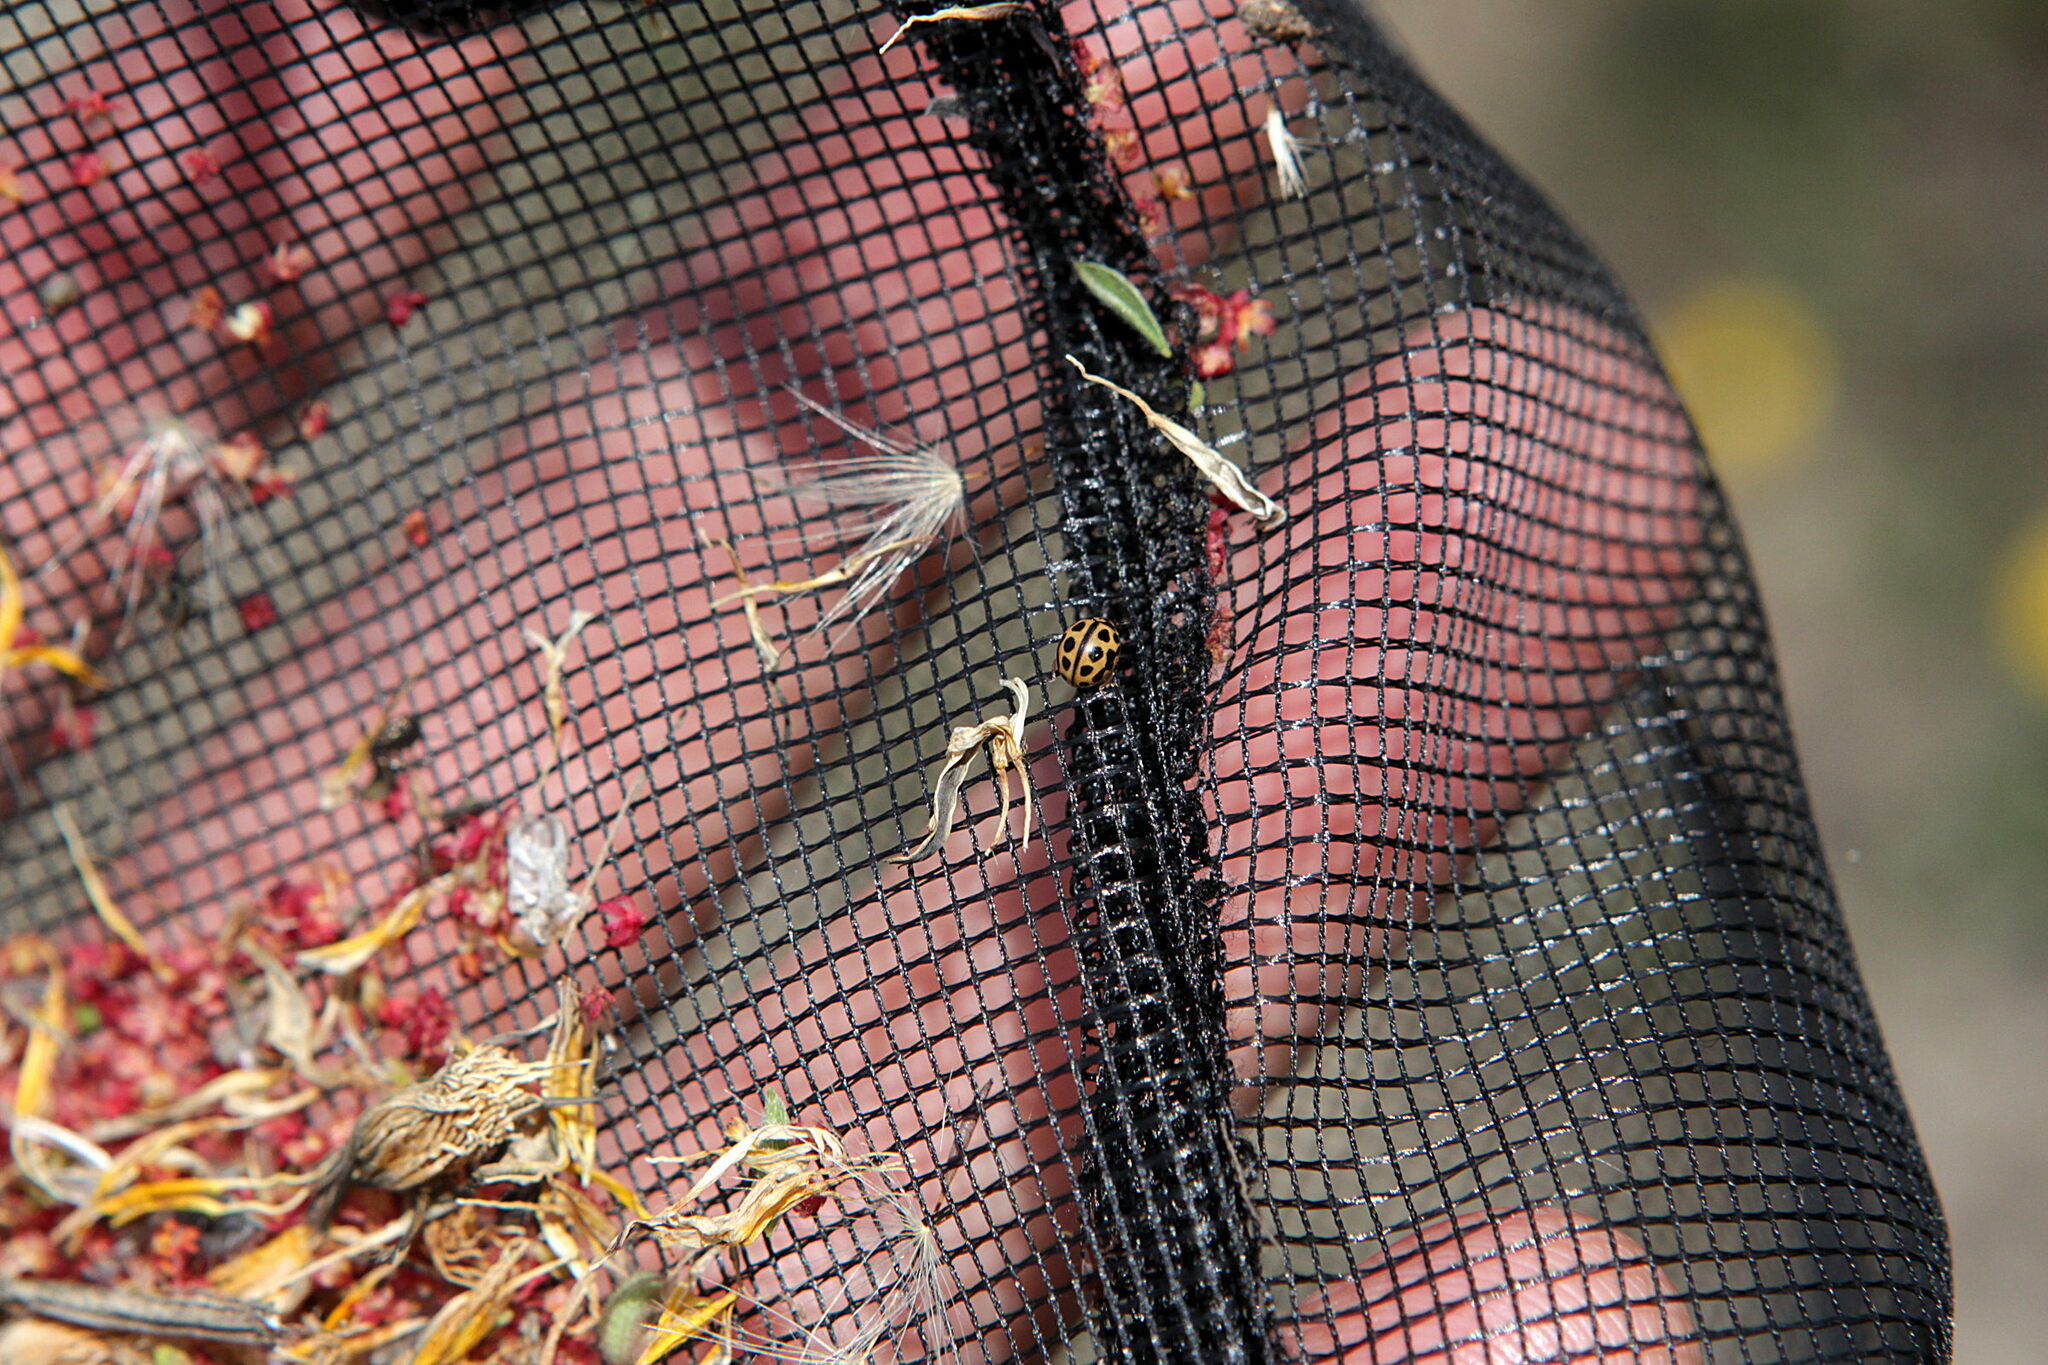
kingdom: Animalia
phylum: Arthropoda
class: Insecta
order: Coleoptera
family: Coccinellidae
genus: Tytthaspis
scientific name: Tytthaspis sedecimpunctata
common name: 16-spot ladybird
